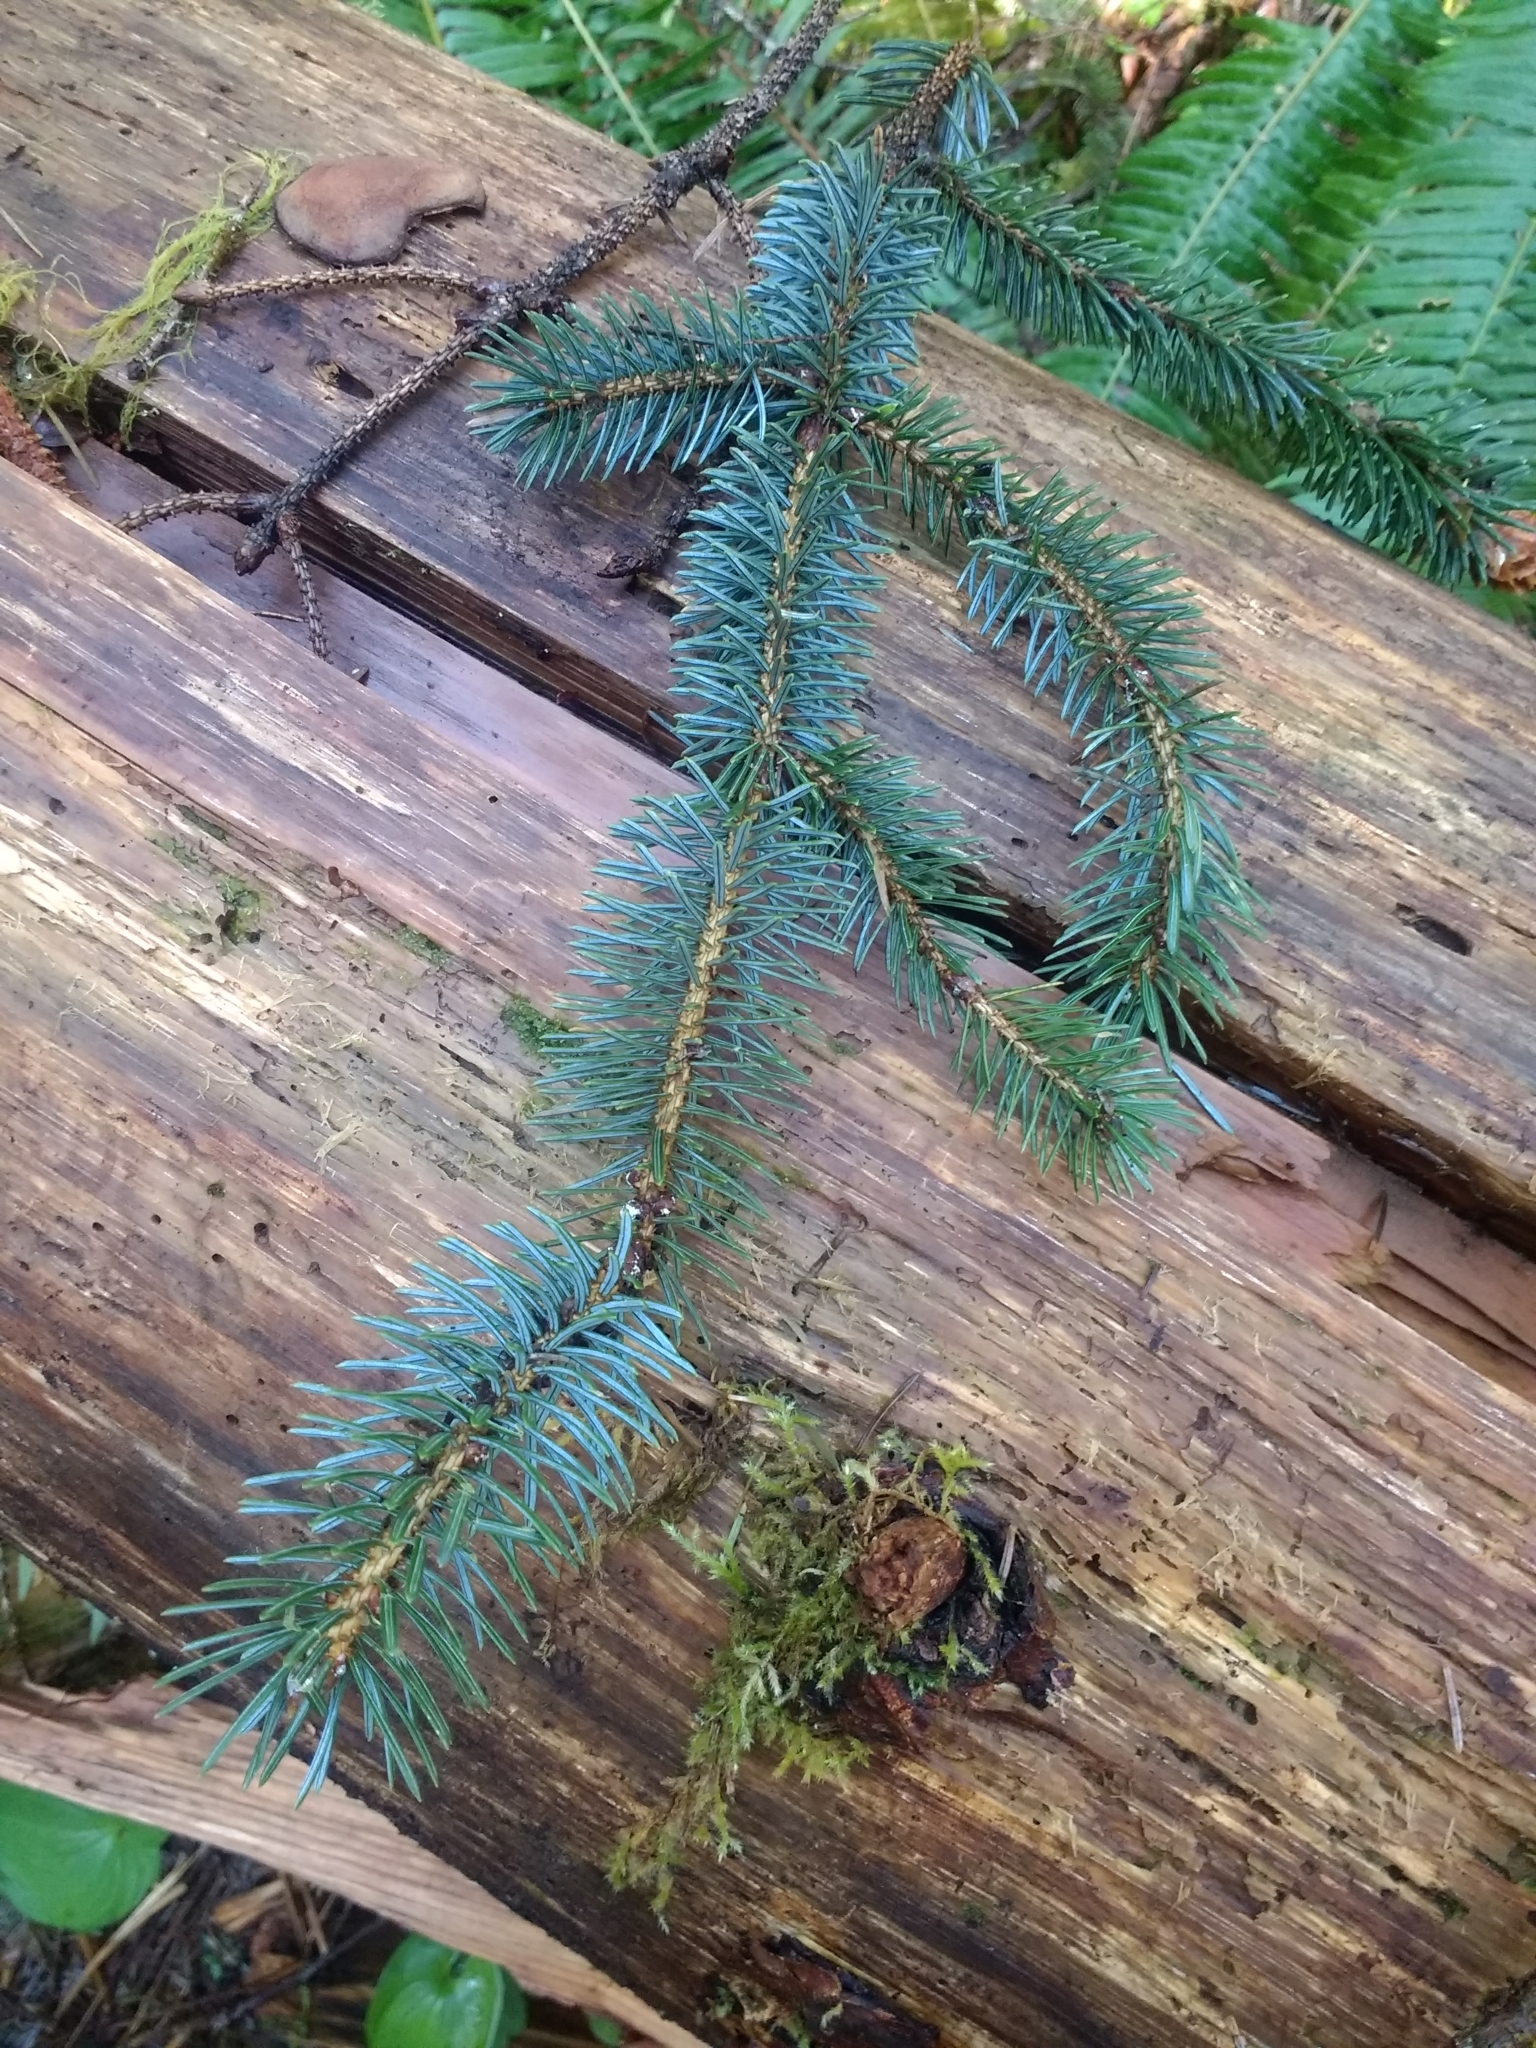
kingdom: Plantae
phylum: Tracheophyta
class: Pinopsida
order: Pinales
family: Pinaceae
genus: Picea
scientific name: Picea sitchensis
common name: Sitka spruce
